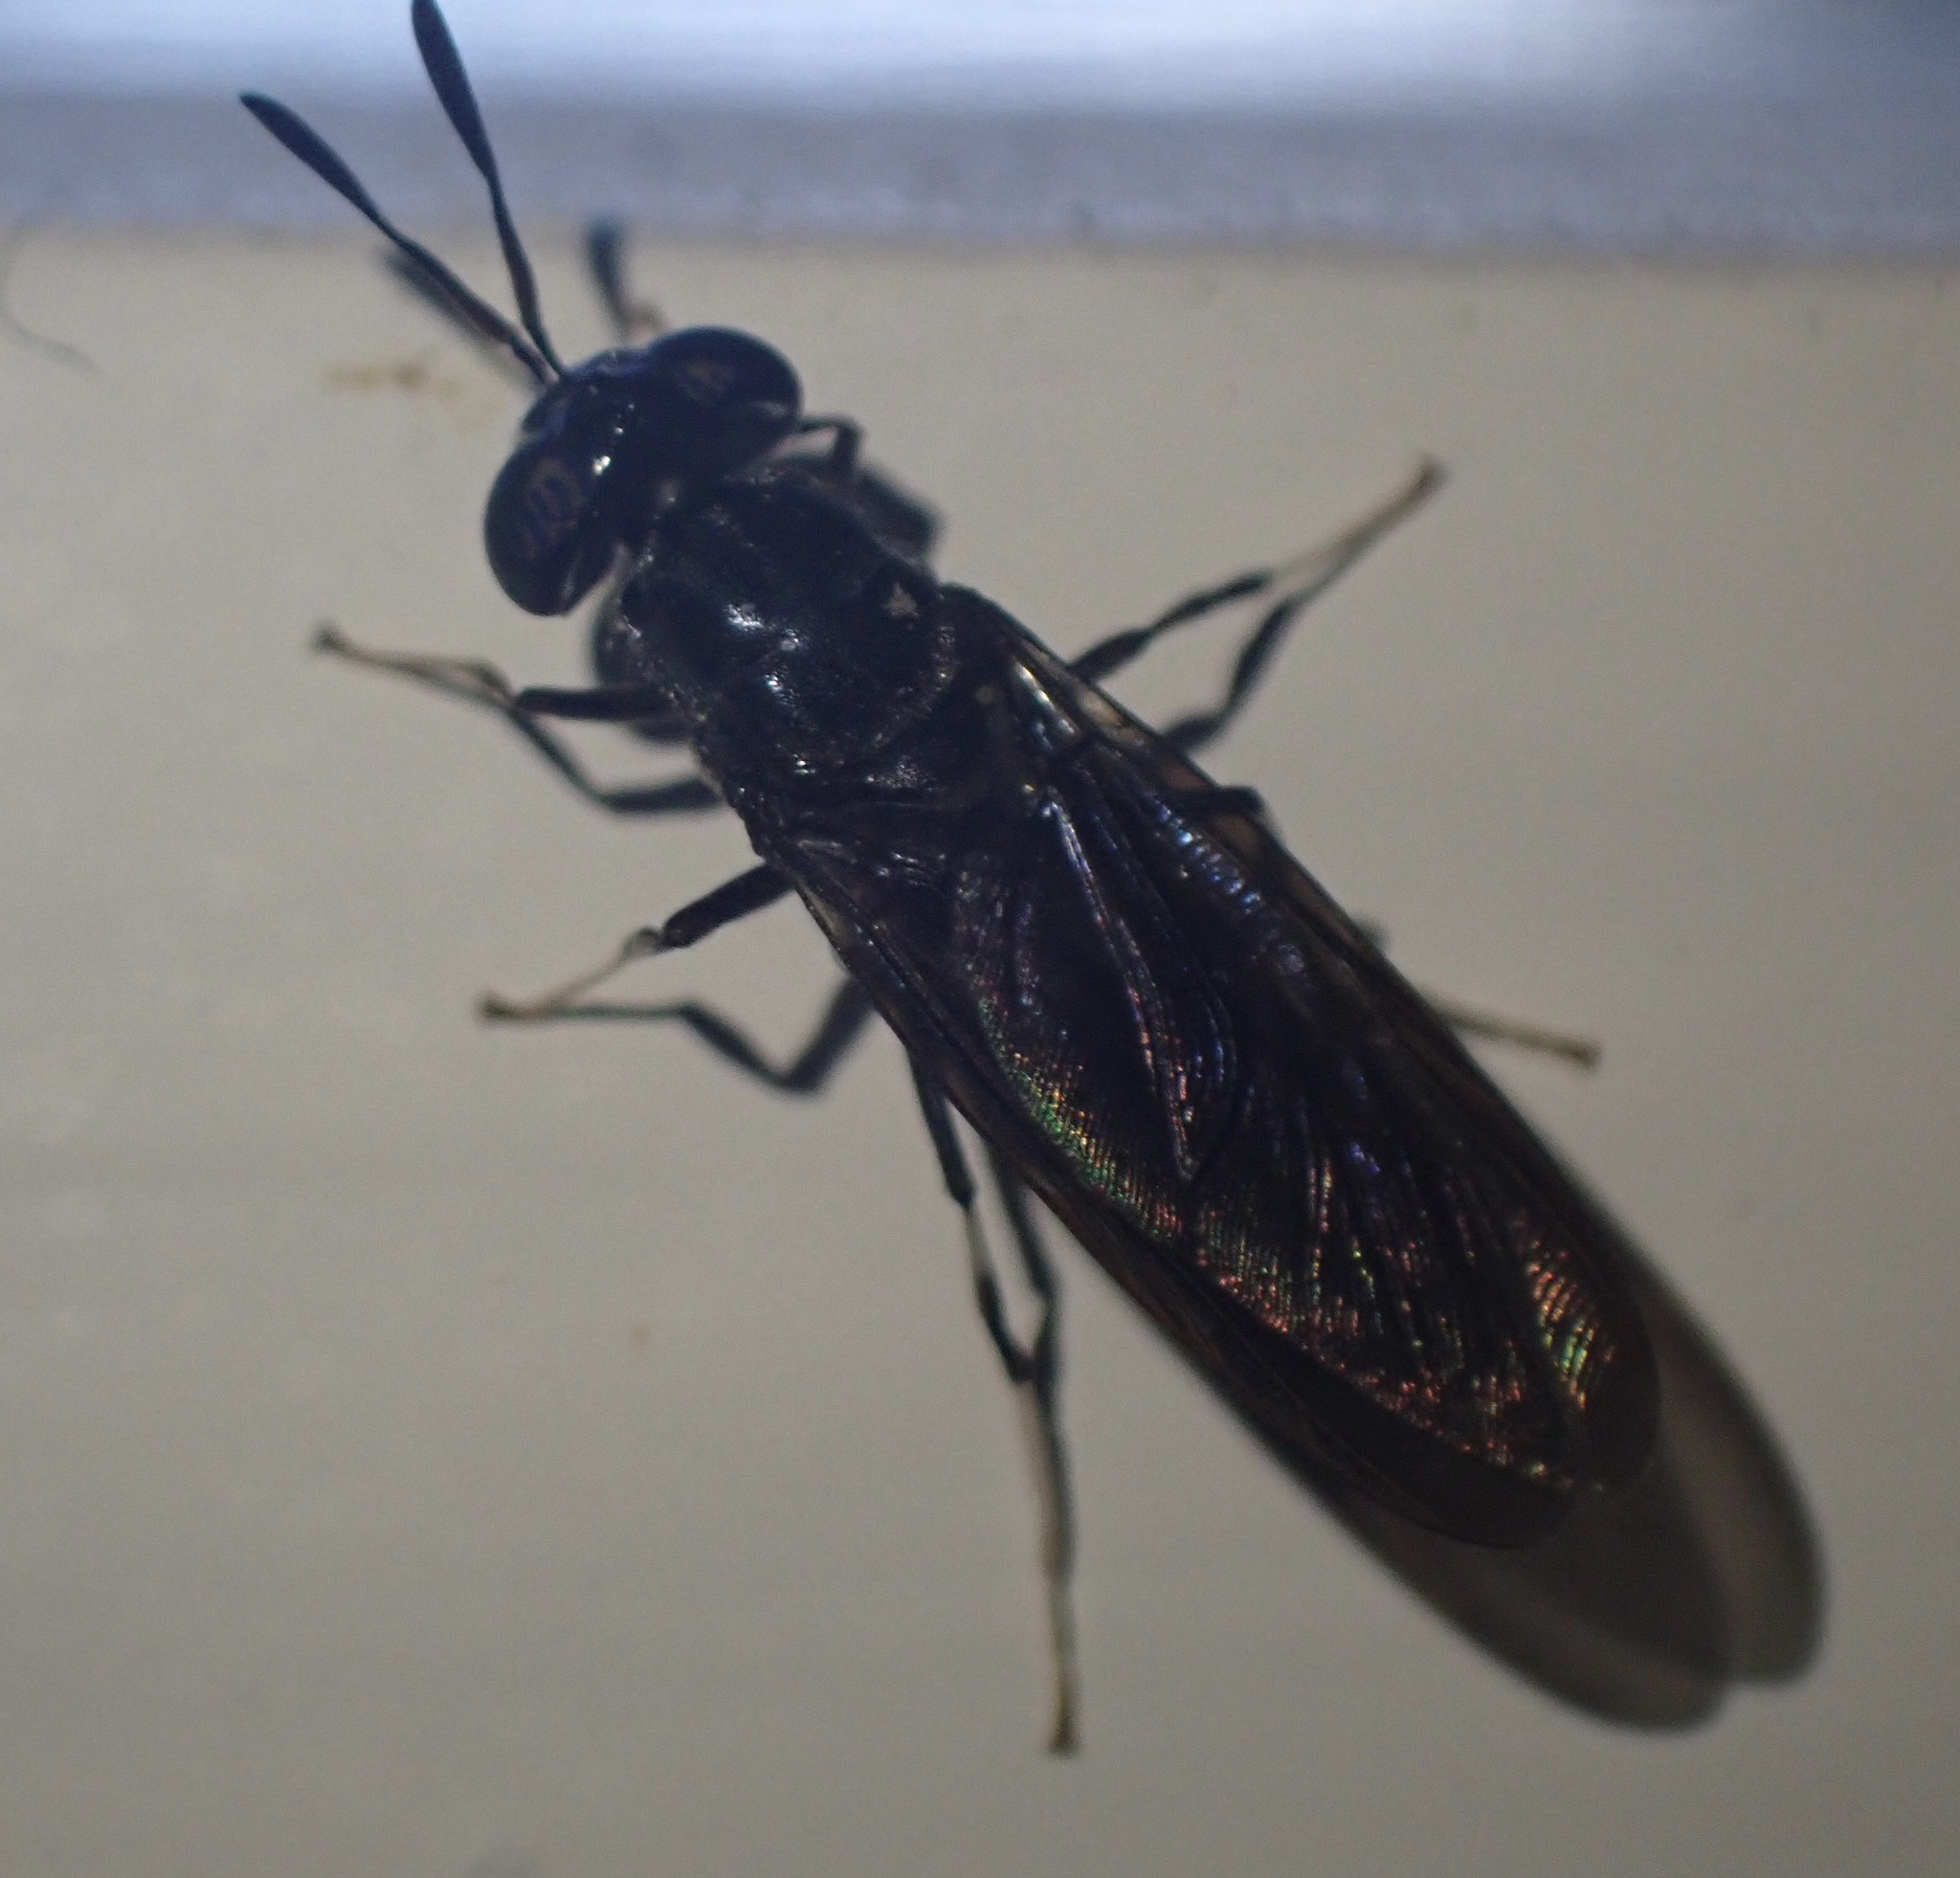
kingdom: Animalia
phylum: Arthropoda
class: Insecta
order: Diptera
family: Stratiomyidae
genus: Hermetia
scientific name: Hermetia illucens
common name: Black soldier fly
